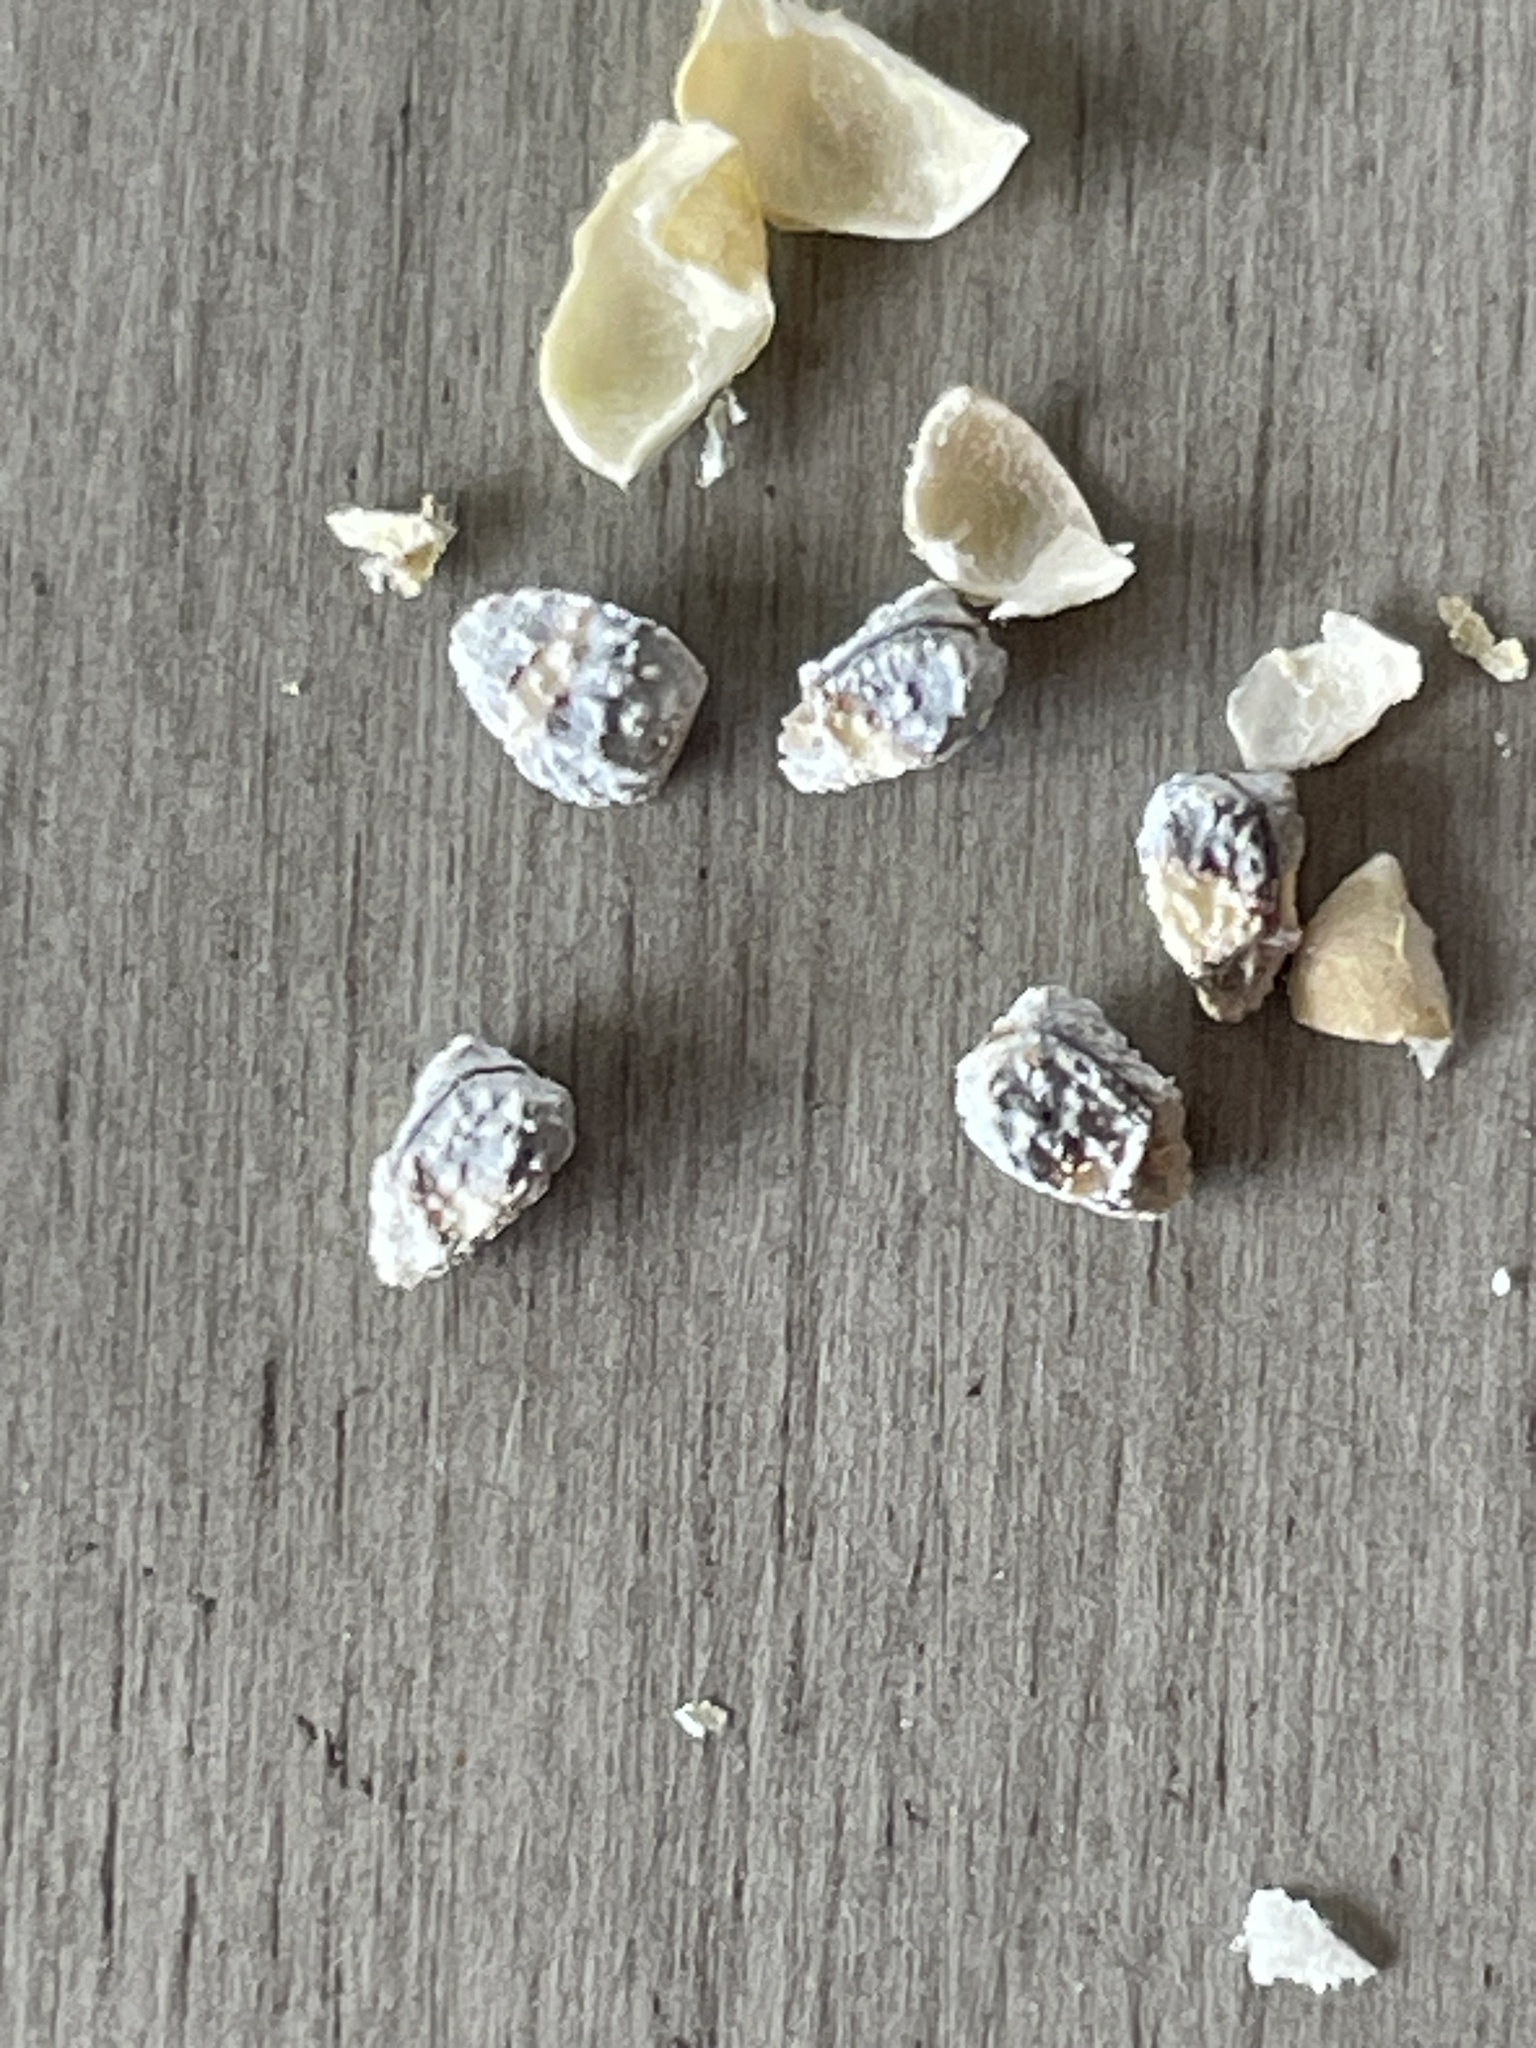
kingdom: Plantae
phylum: Tracheophyta
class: Magnoliopsida
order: Malpighiales
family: Euphorbiaceae
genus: Euphorbia
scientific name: Euphorbia davidii
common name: David's spurge
